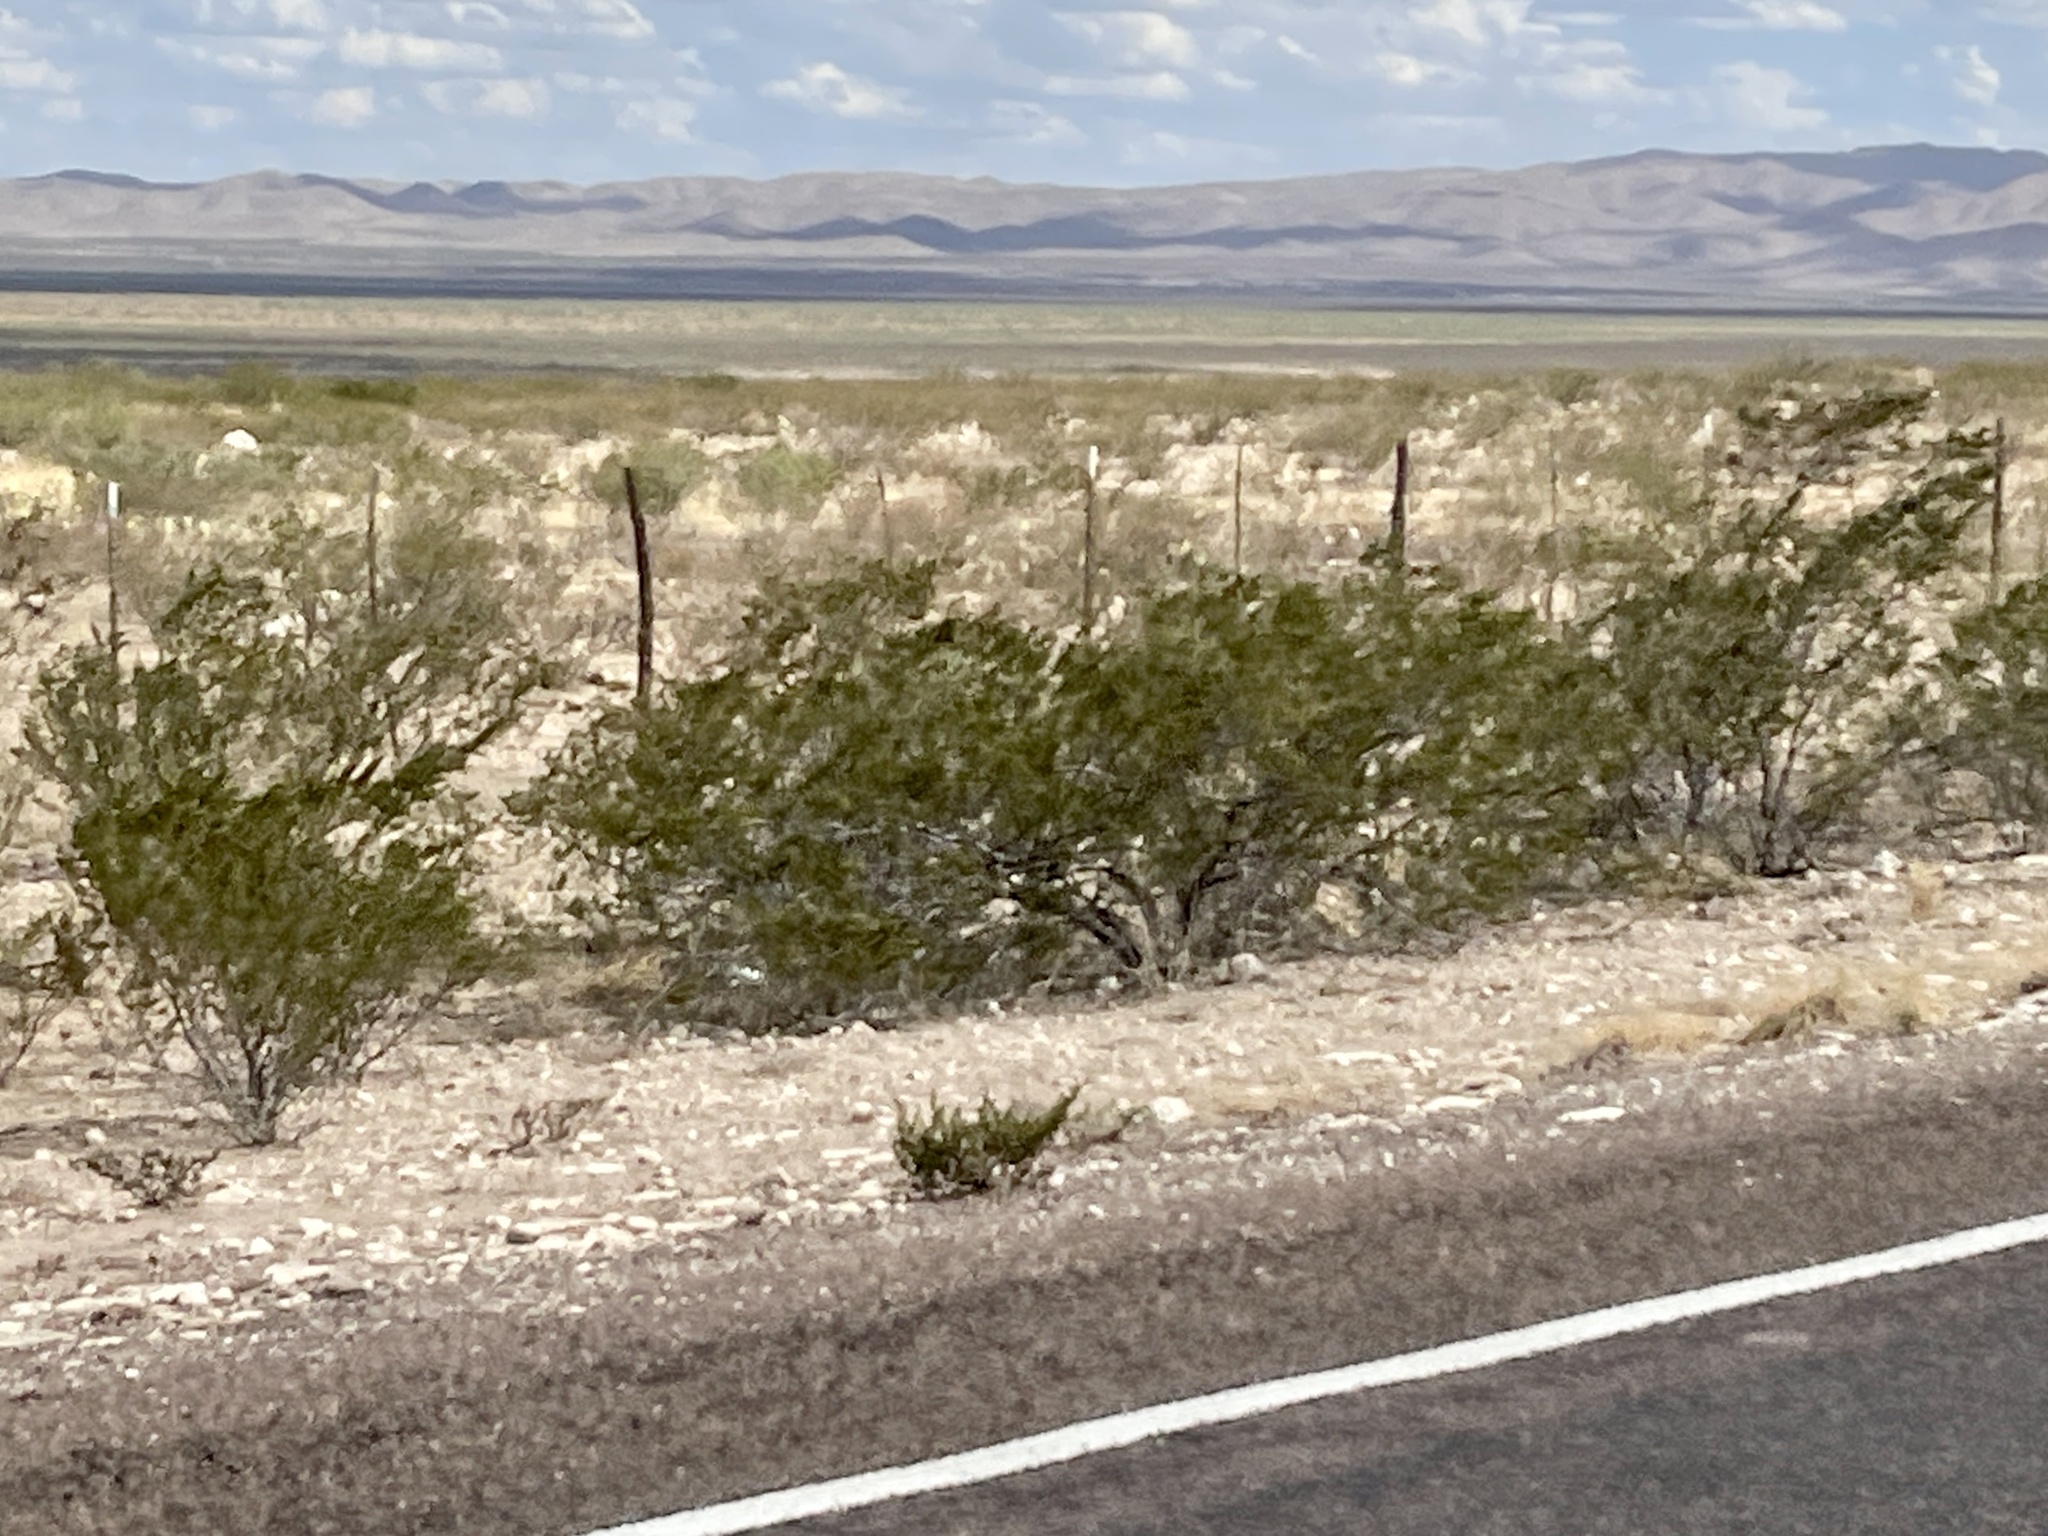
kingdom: Plantae
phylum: Tracheophyta
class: Magnoliopsida
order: Zygophyllales
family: Zygophyllaceae
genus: Larrea
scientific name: Larrea tridentata
